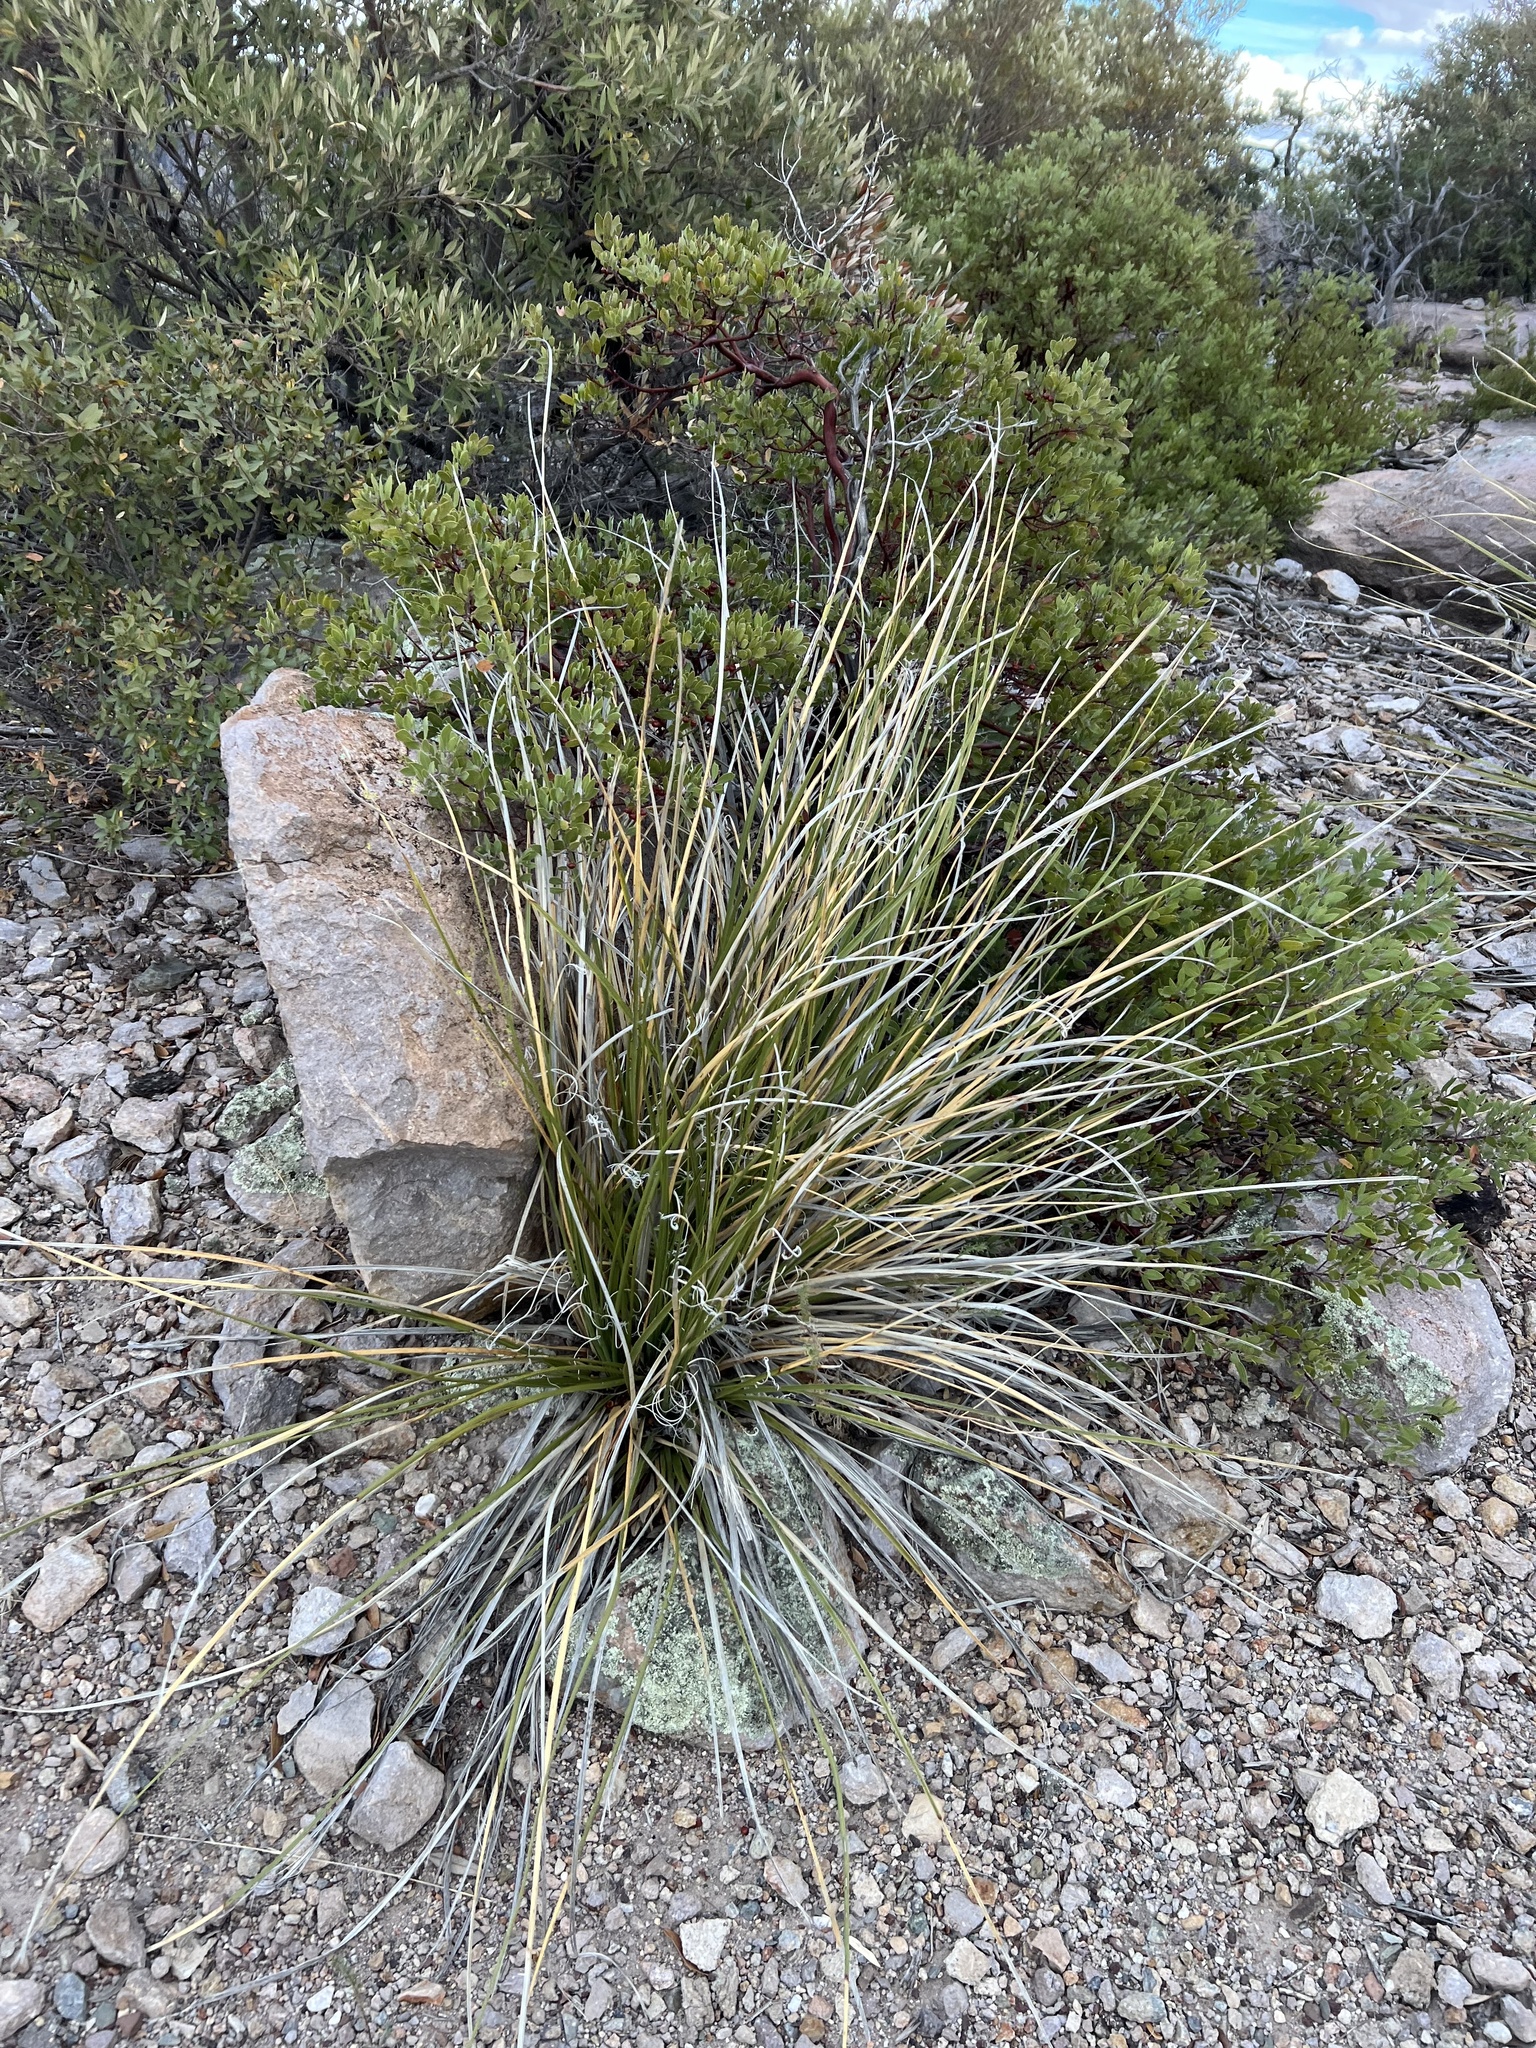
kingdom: Plantae
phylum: Tracheophyta
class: Liliopsida
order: Asparagales
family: Asparagaceae
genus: Nolina
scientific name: Nolina microcarpa
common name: Bear-grass
